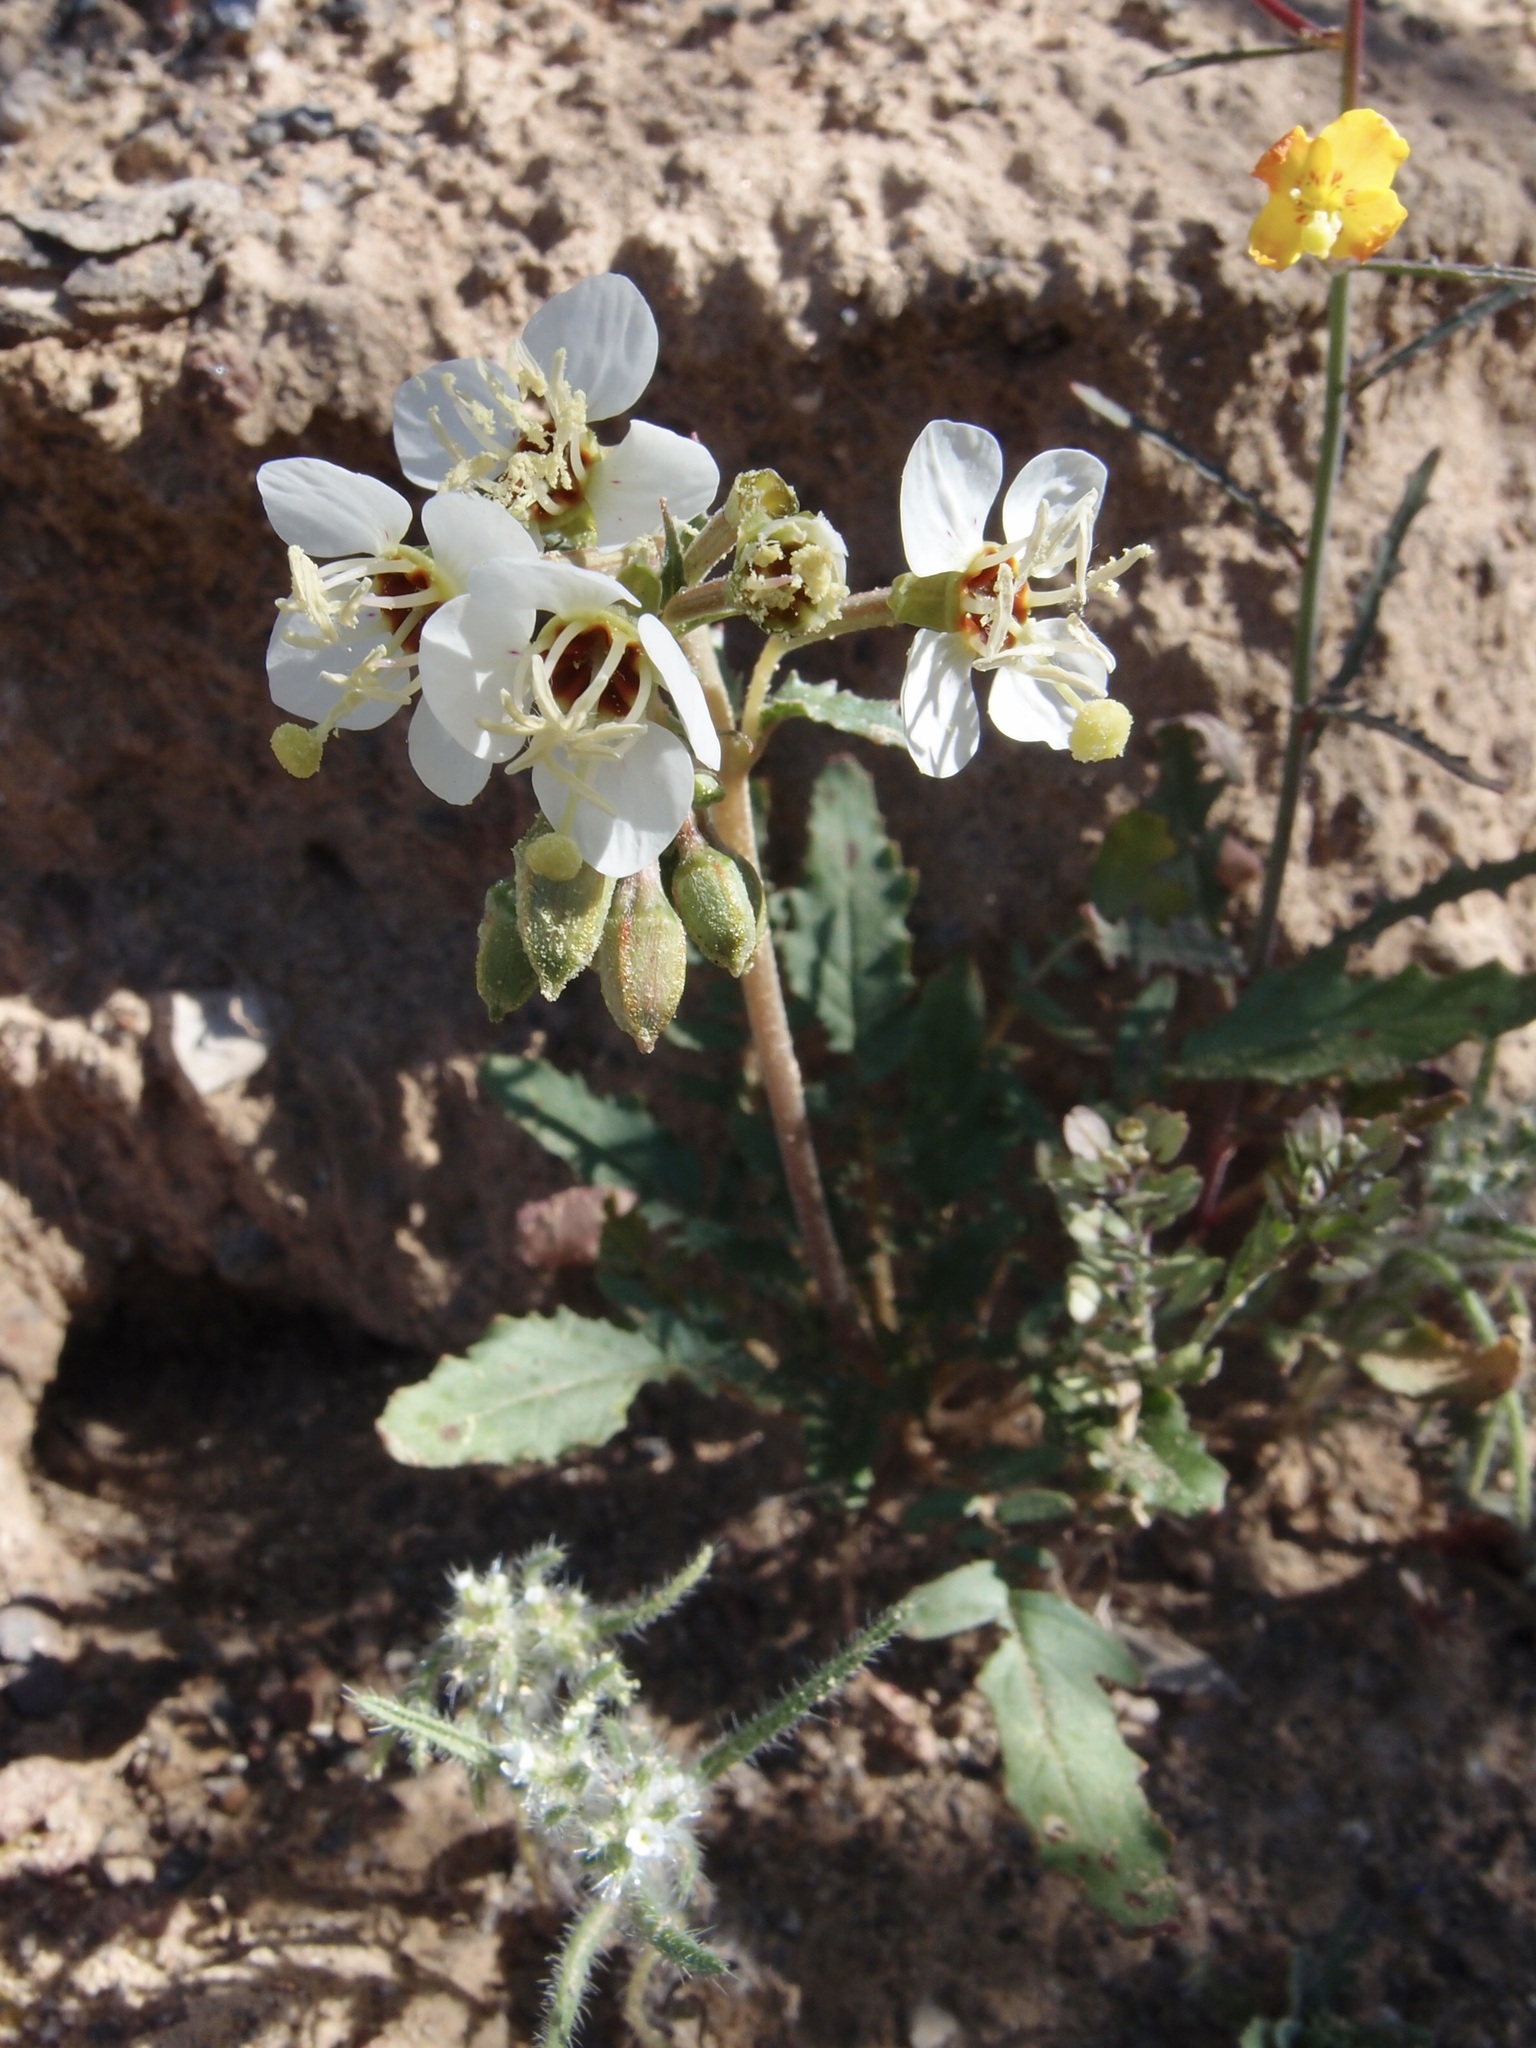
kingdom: Plantae
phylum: Tracheophyta
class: Magnoliopsida
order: Myrtales
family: Onagraceae
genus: Chylismia
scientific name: Chylismia claviformis
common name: Browneyes
